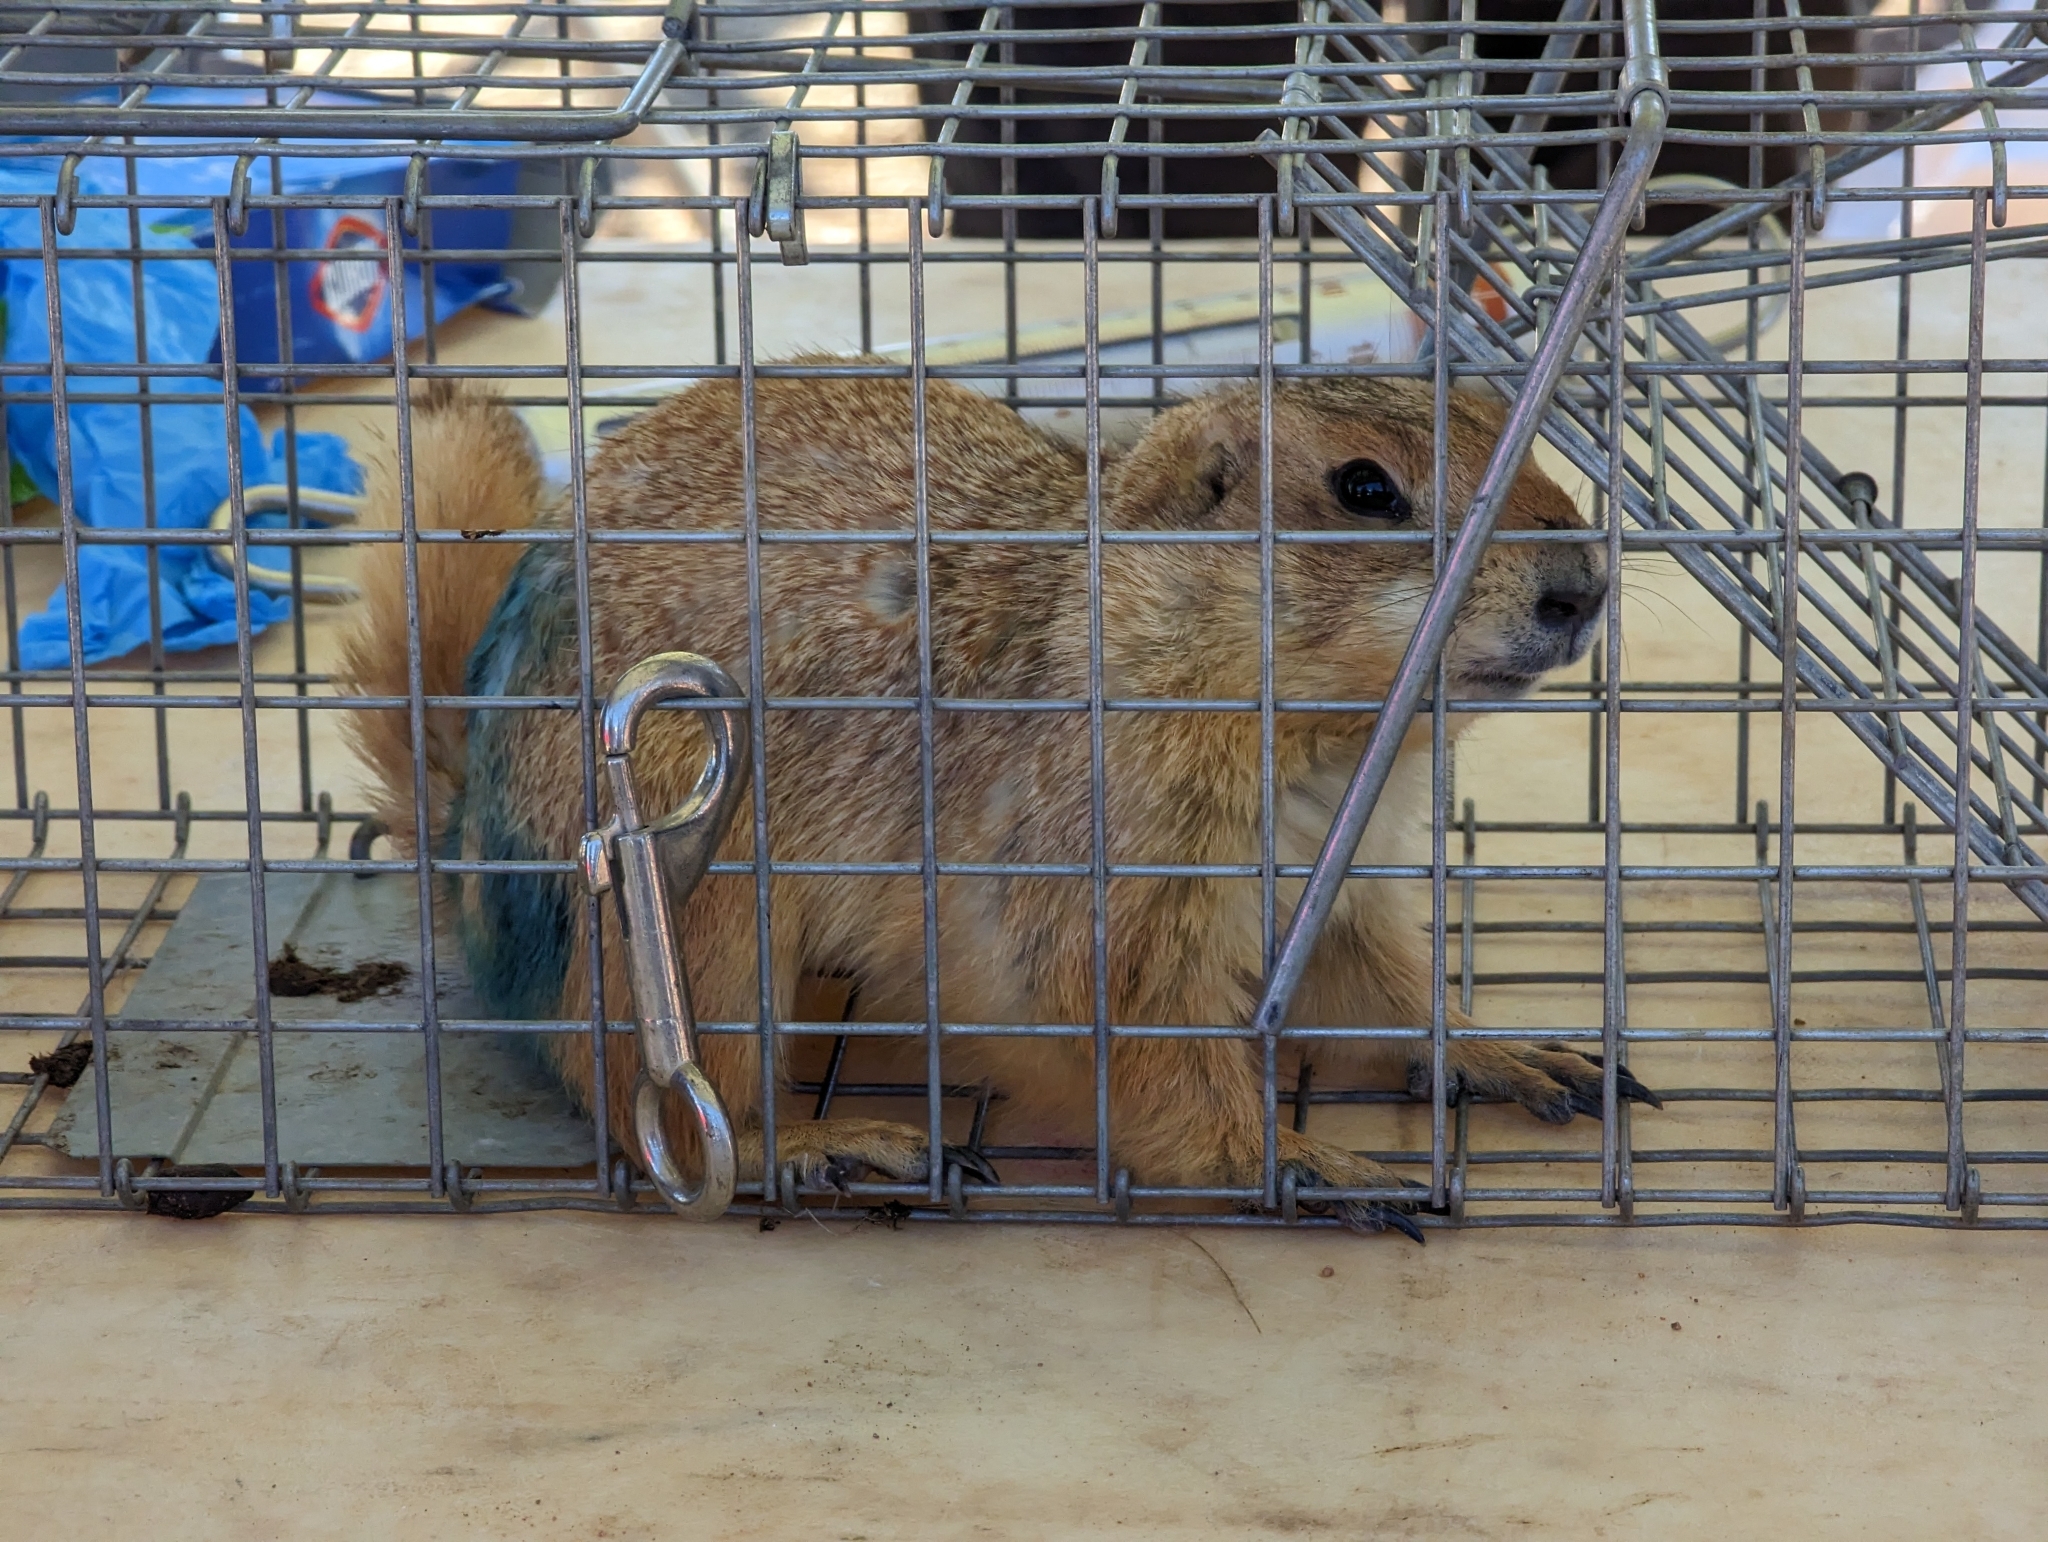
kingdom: Animalia
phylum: Chordata
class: Mammalia
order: Rodentia
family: Sciuridae
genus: Cynomys
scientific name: Cynomys ludovicianus
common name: Black-tailed prairie dog
